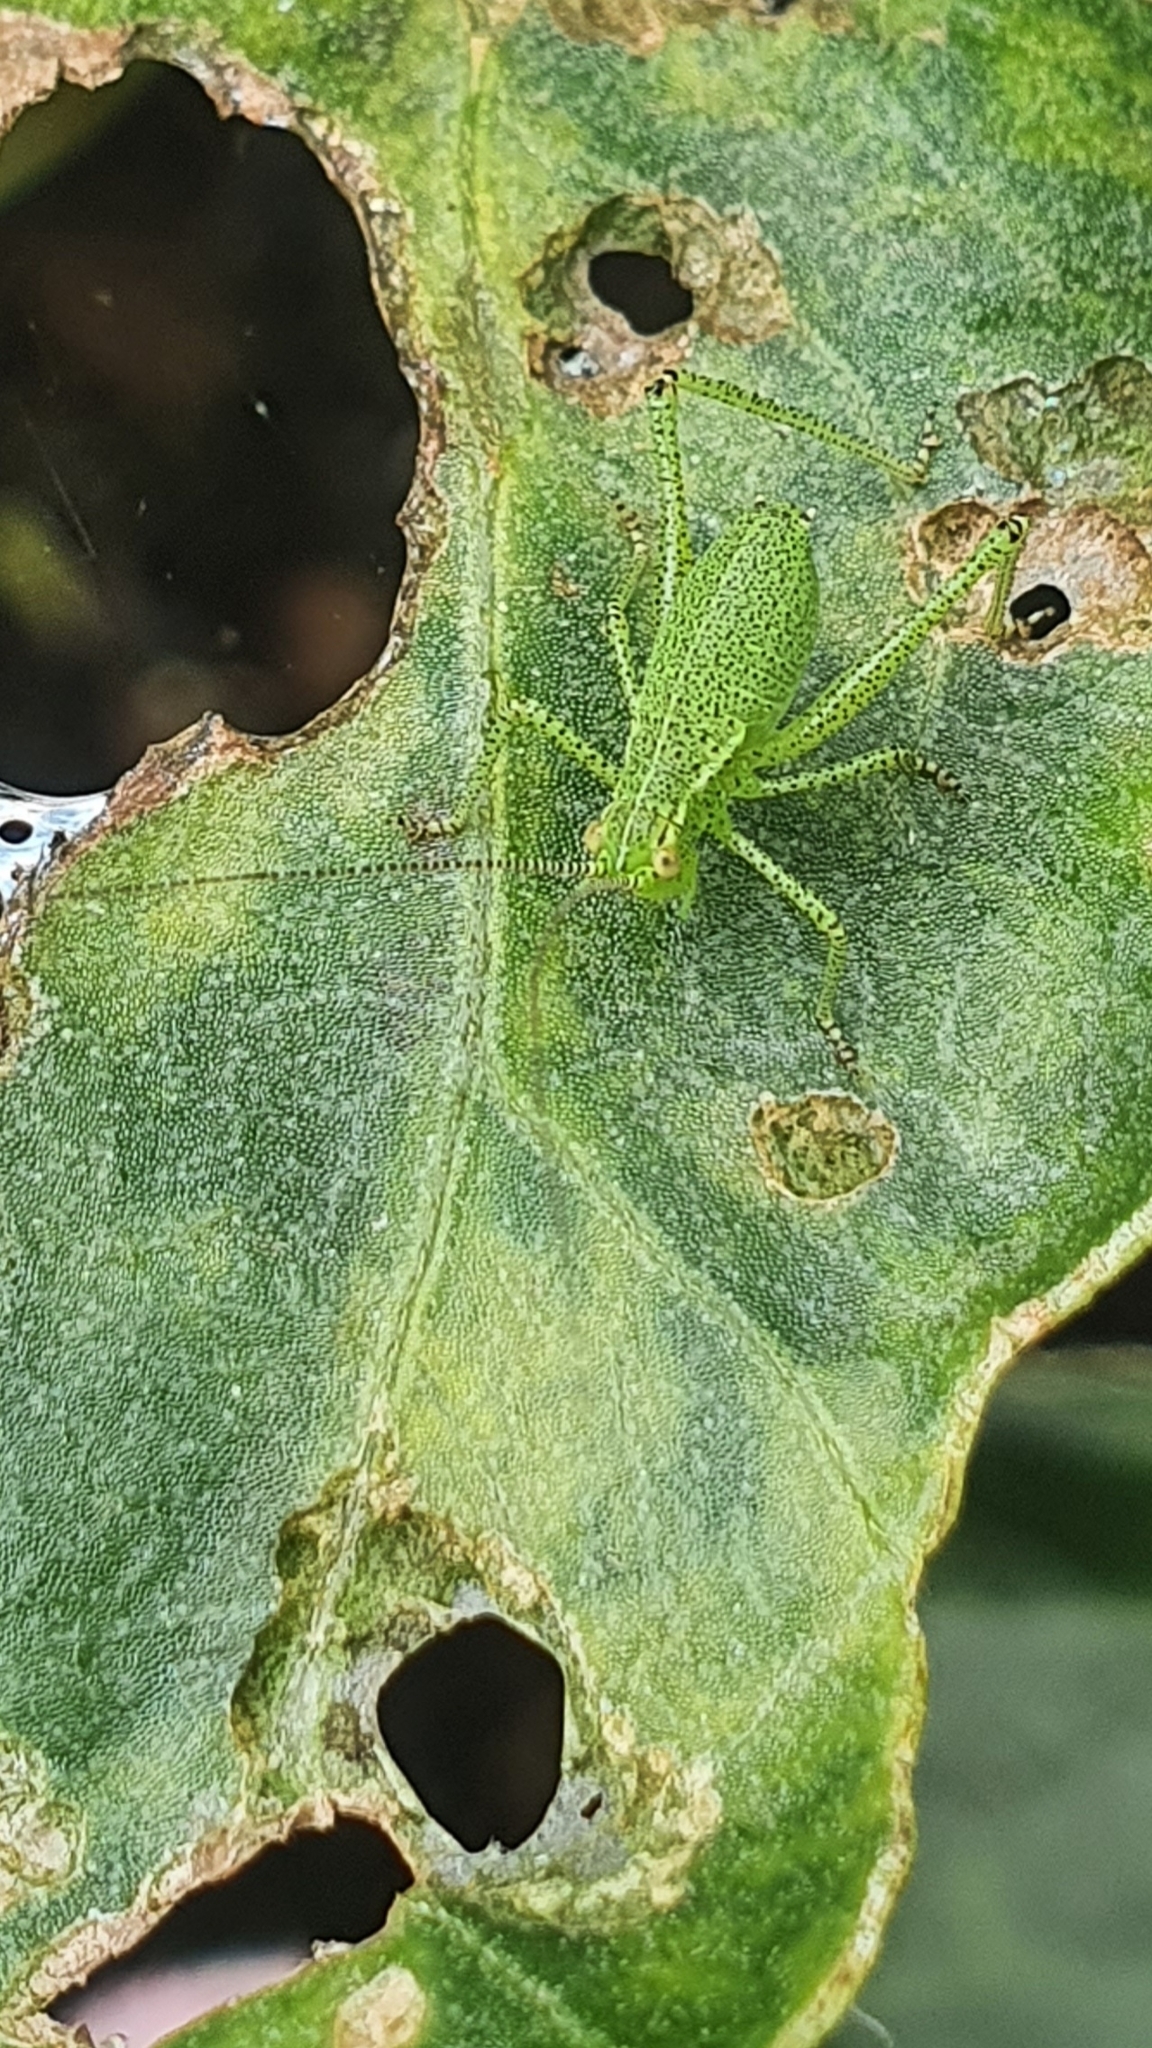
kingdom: Animalia
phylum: Arthropoda
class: Insecta
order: Orthoptera
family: Tettigoniidae
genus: Leptophyes
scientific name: Leptophyes punctatissima
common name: Speckled bush-cricket
